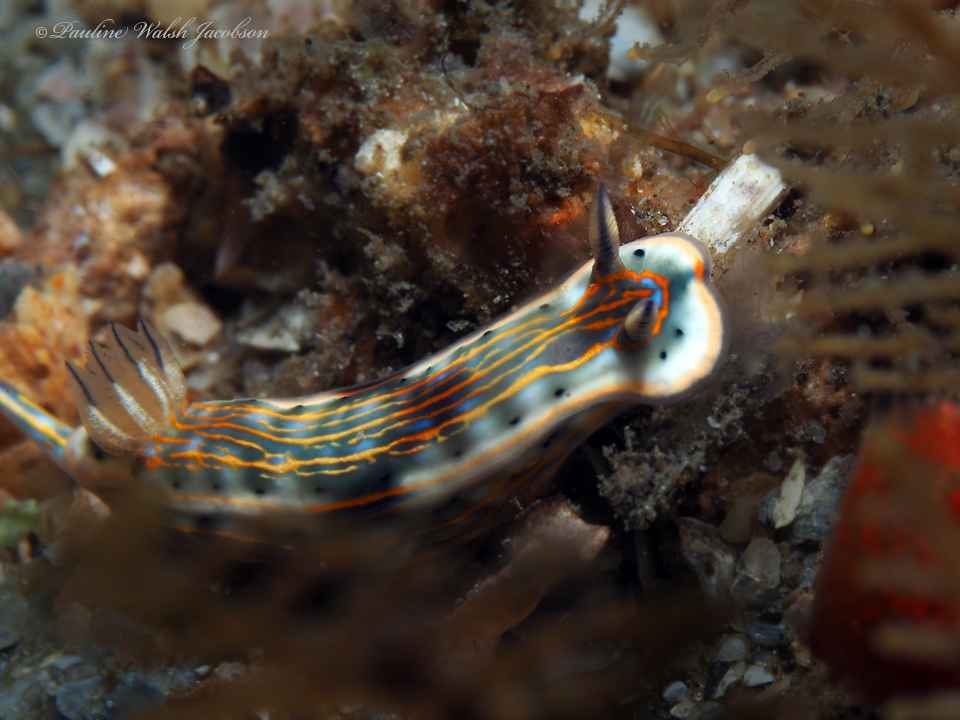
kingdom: Animalia
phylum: Mollusca
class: Gastropoda
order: Nudibranchia
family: Chromodorididae
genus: Felimare
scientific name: Felimare fregona
